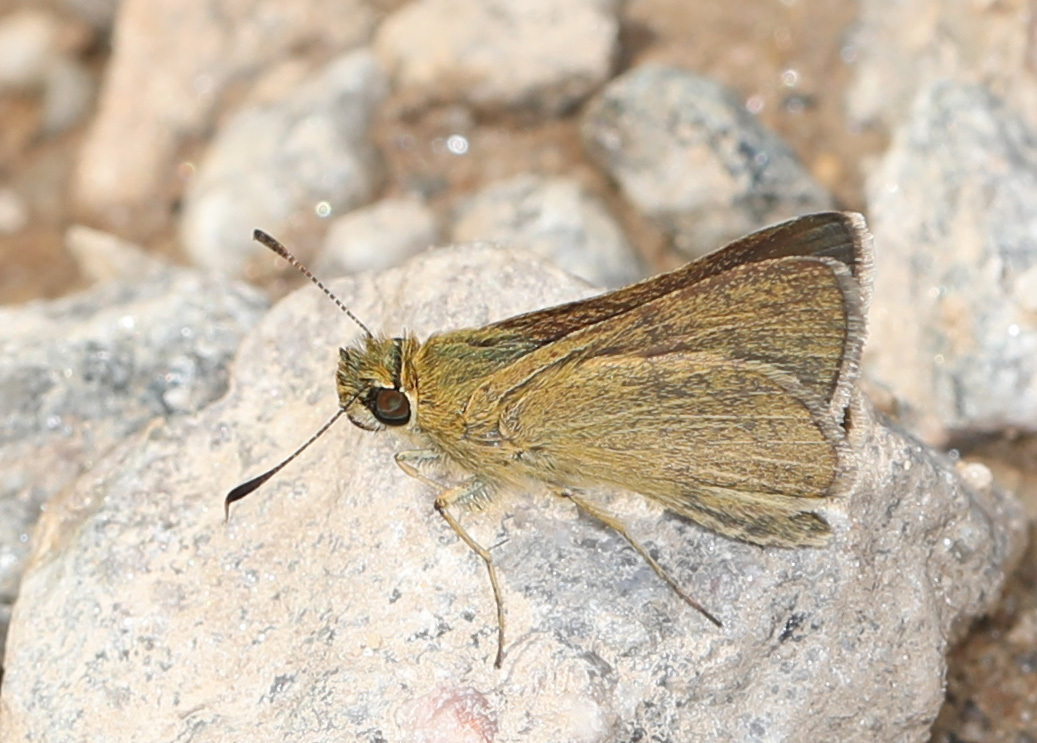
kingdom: Animalia
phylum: Arthropoda
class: Insecta
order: Lepidoptera
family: Hesperiidae
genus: Nastra
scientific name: Nastra lherminier
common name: Swarthy skipper
